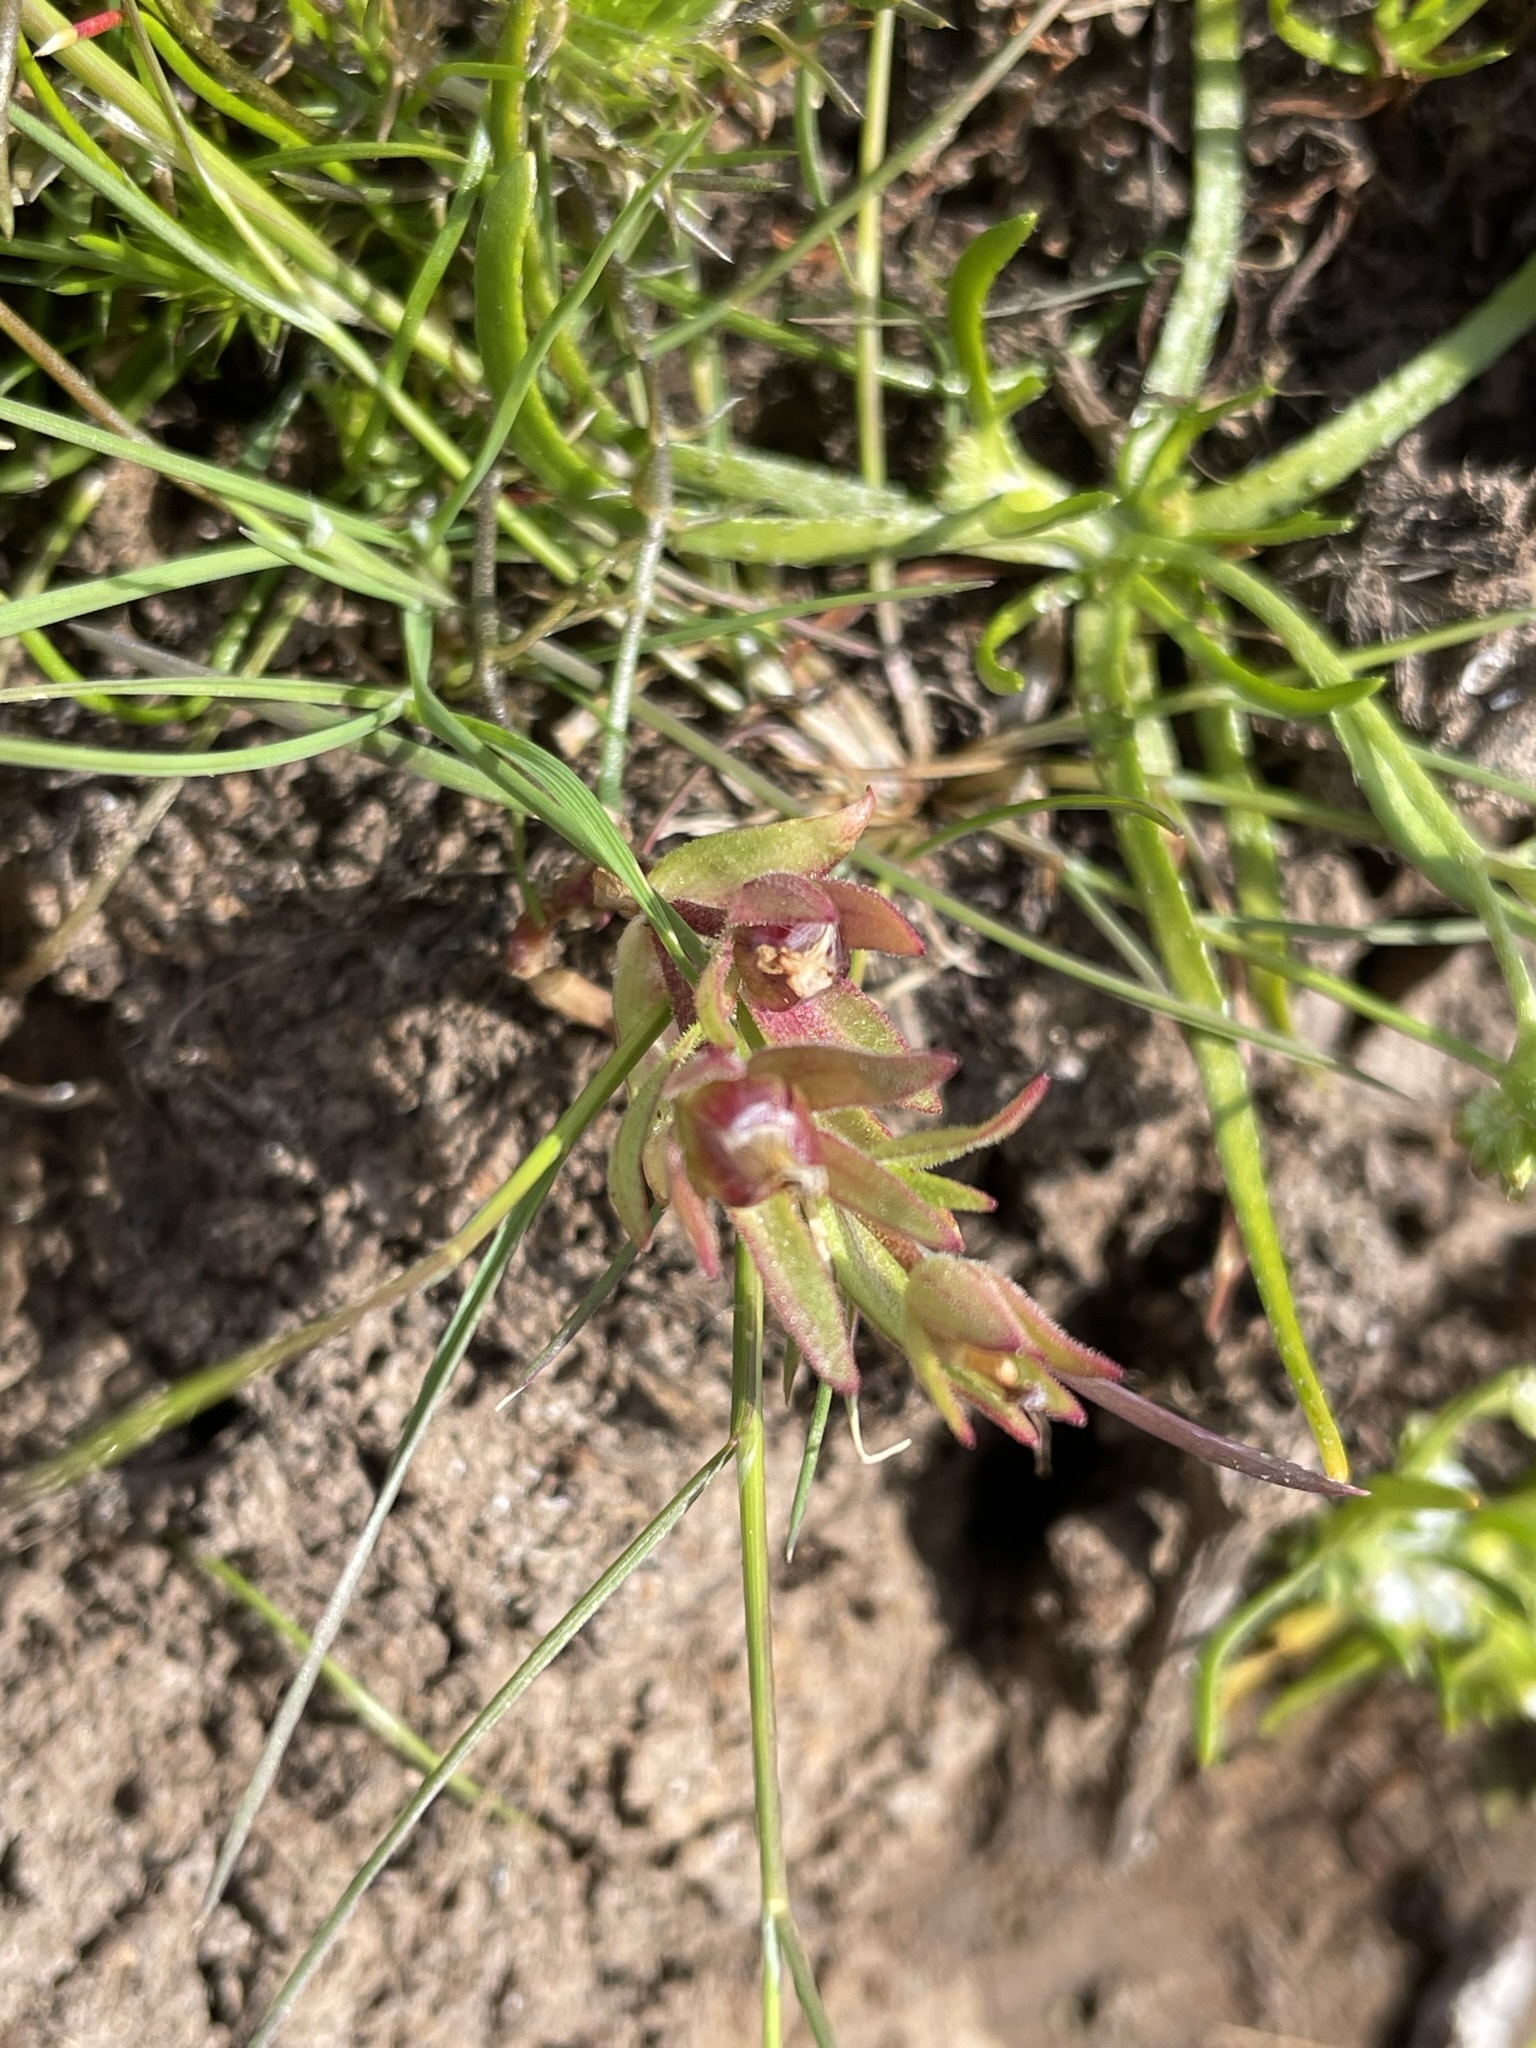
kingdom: Plantae
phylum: Tracheophyta
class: Magnoliopsida
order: Lamiales
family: Plantaginaceae
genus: Gratiola
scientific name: Gratiola ebracteata
